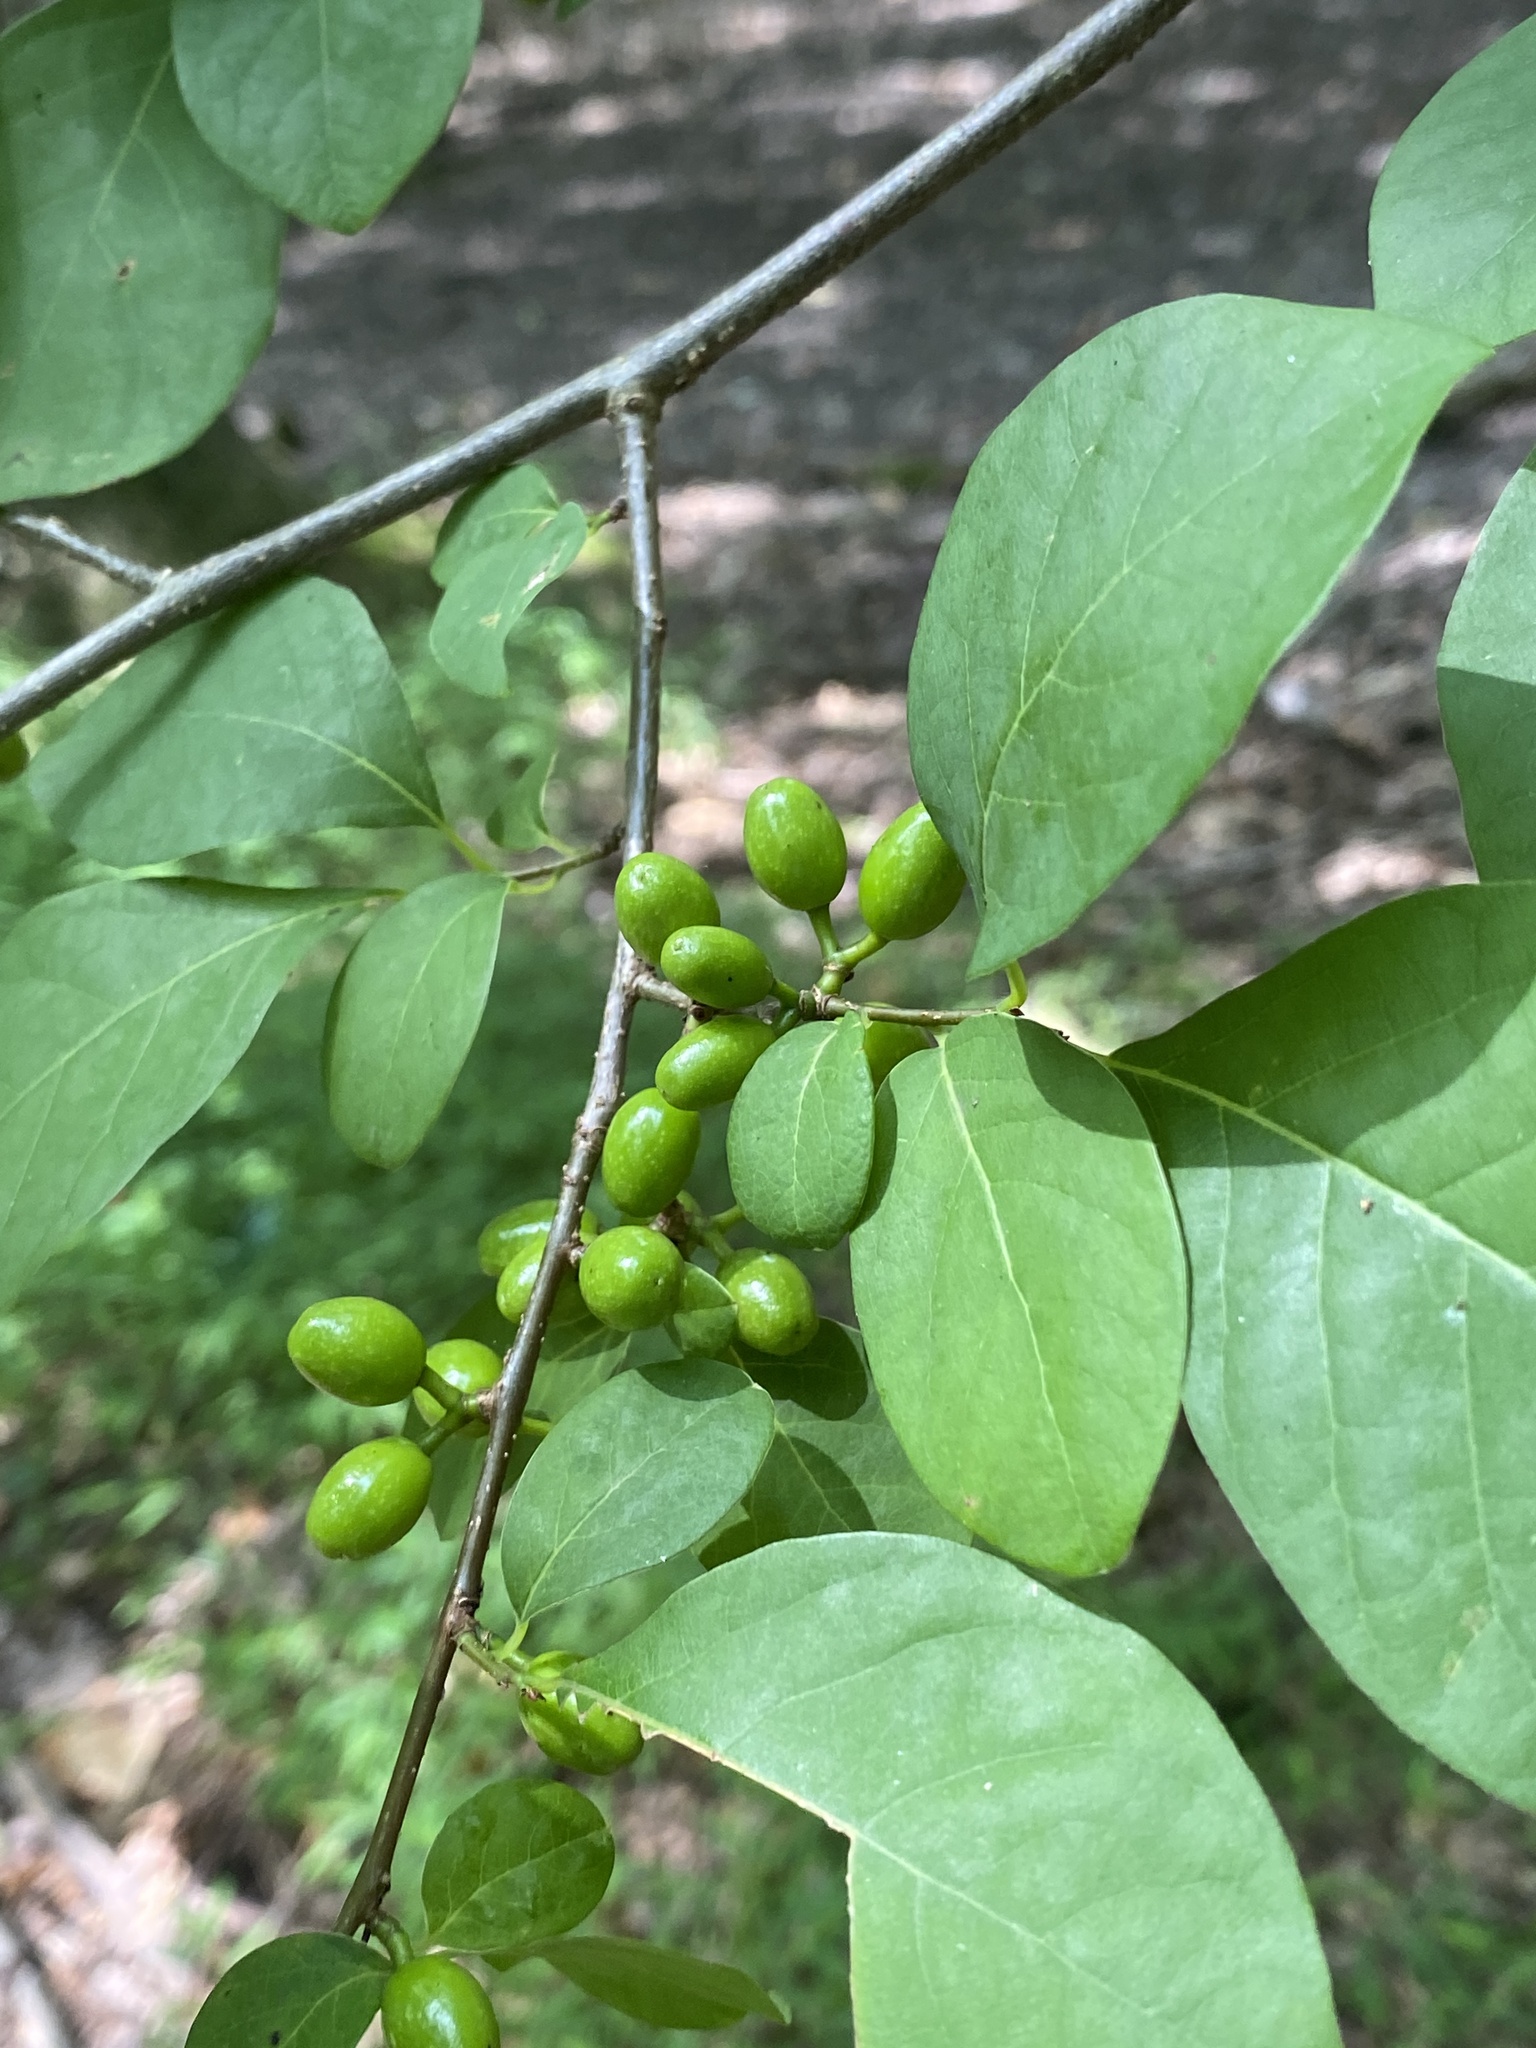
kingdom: Plantae
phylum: Tracheophyta
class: Magnoliopsida
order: Laurales
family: Lauraceae
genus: Lindera
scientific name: Lindera benzoin
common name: Spicebush
